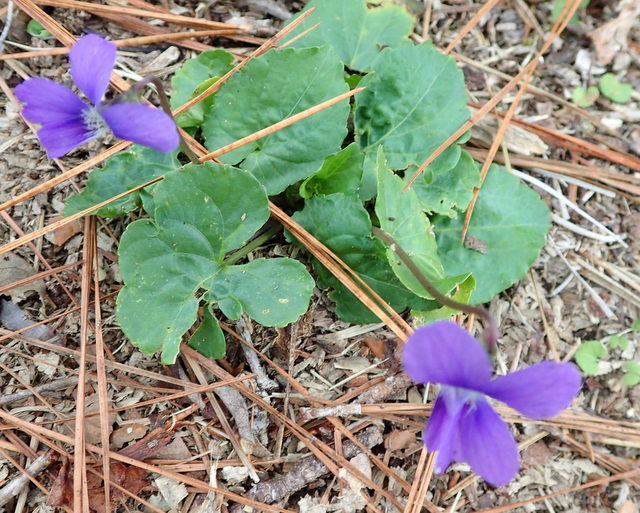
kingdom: Plantae
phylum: Tracheophyta
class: Magnoliopsida
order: Malpighiales
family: Violaceae
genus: Viola
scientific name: Viola sororia
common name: Dooryard violet
